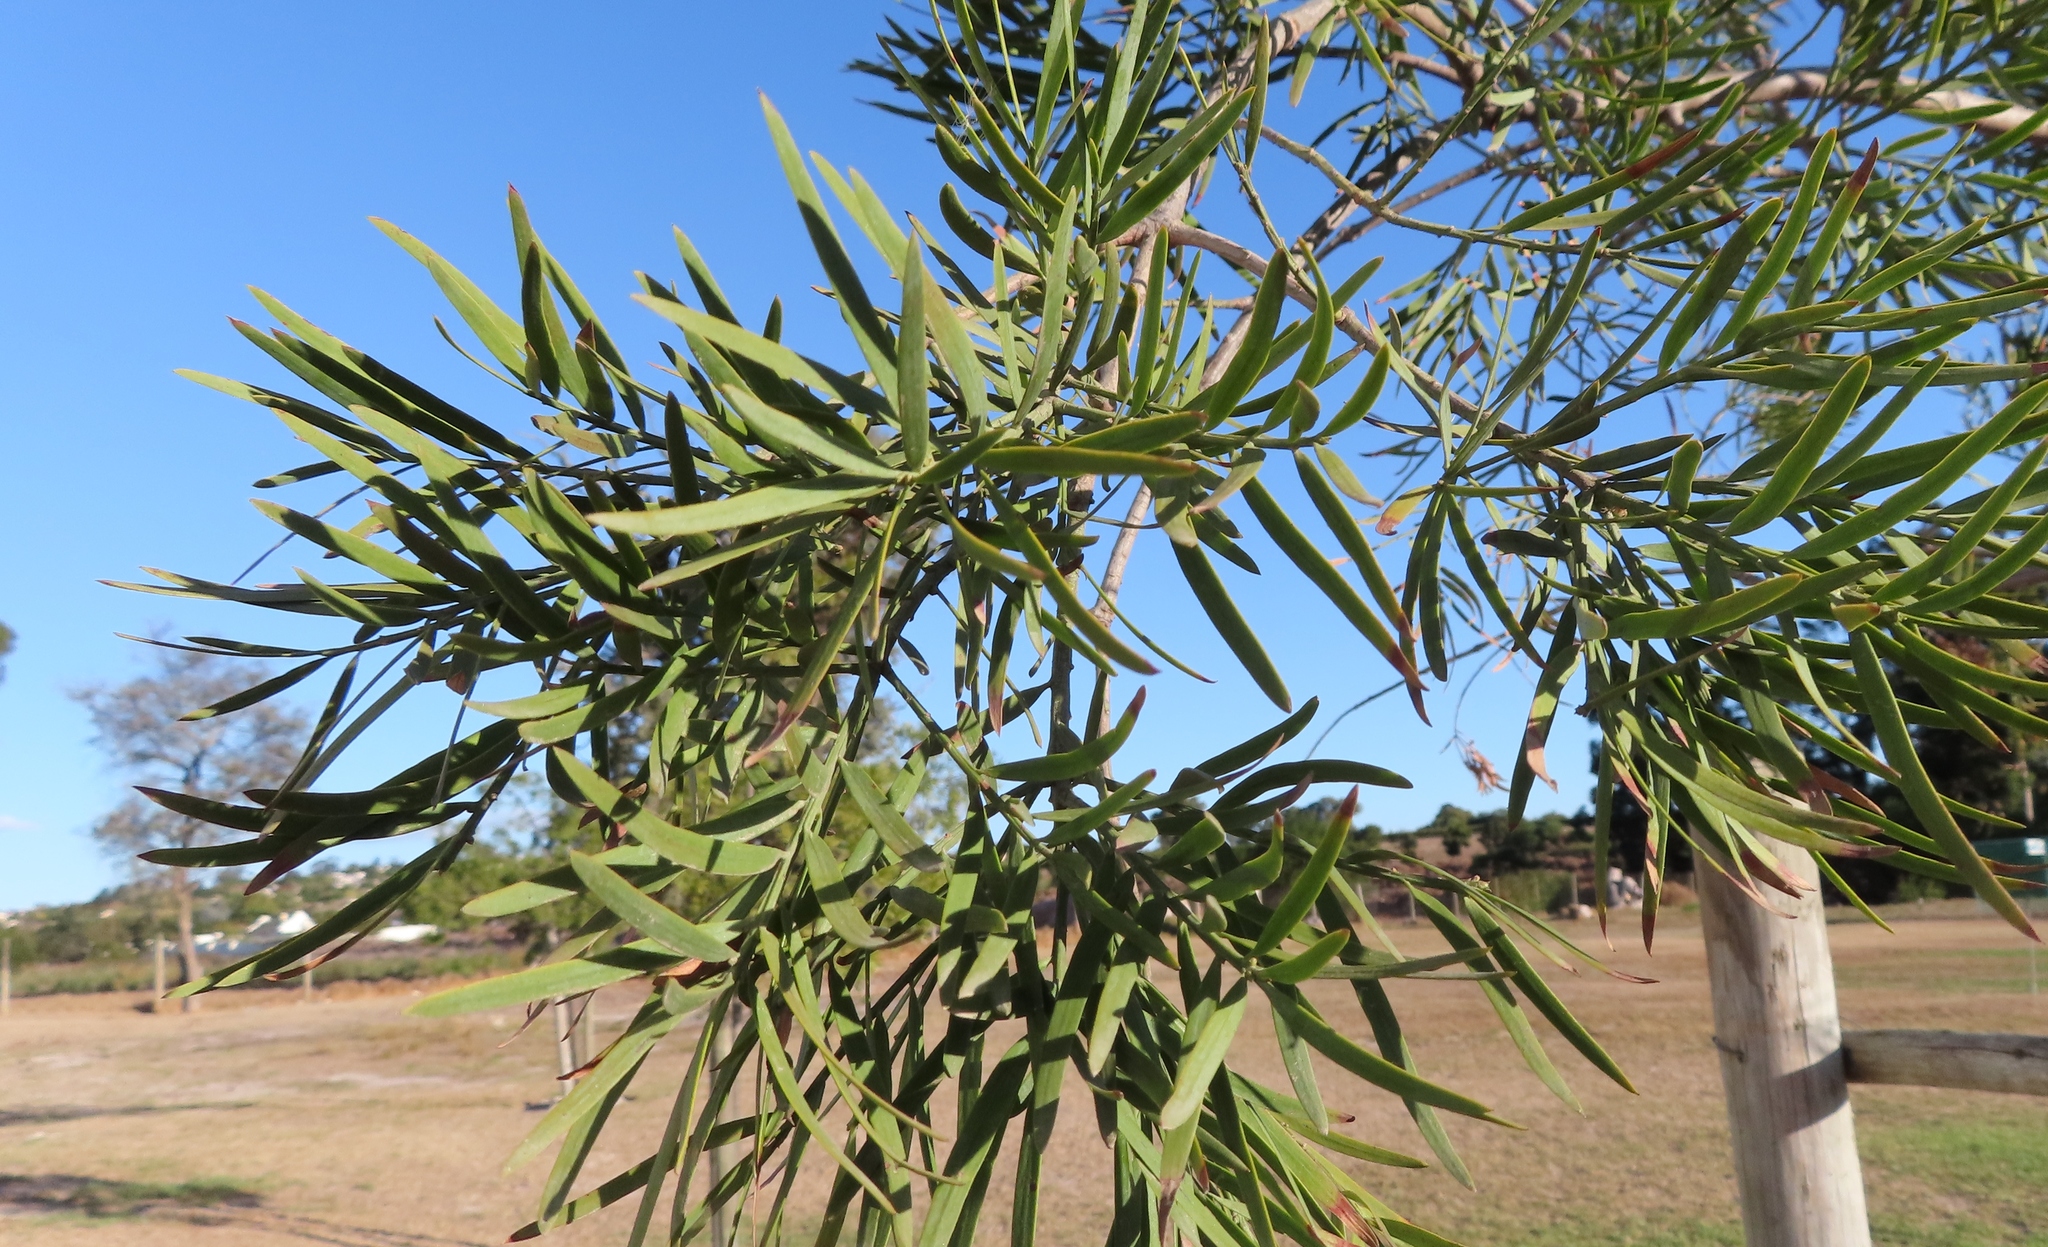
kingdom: Plantae
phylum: Tracheophyta
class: Pinopsida
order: Pinales
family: Podocarpaceae
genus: Afrocarpus
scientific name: Afrocarpus falcatus
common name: Bastard yellowwood
